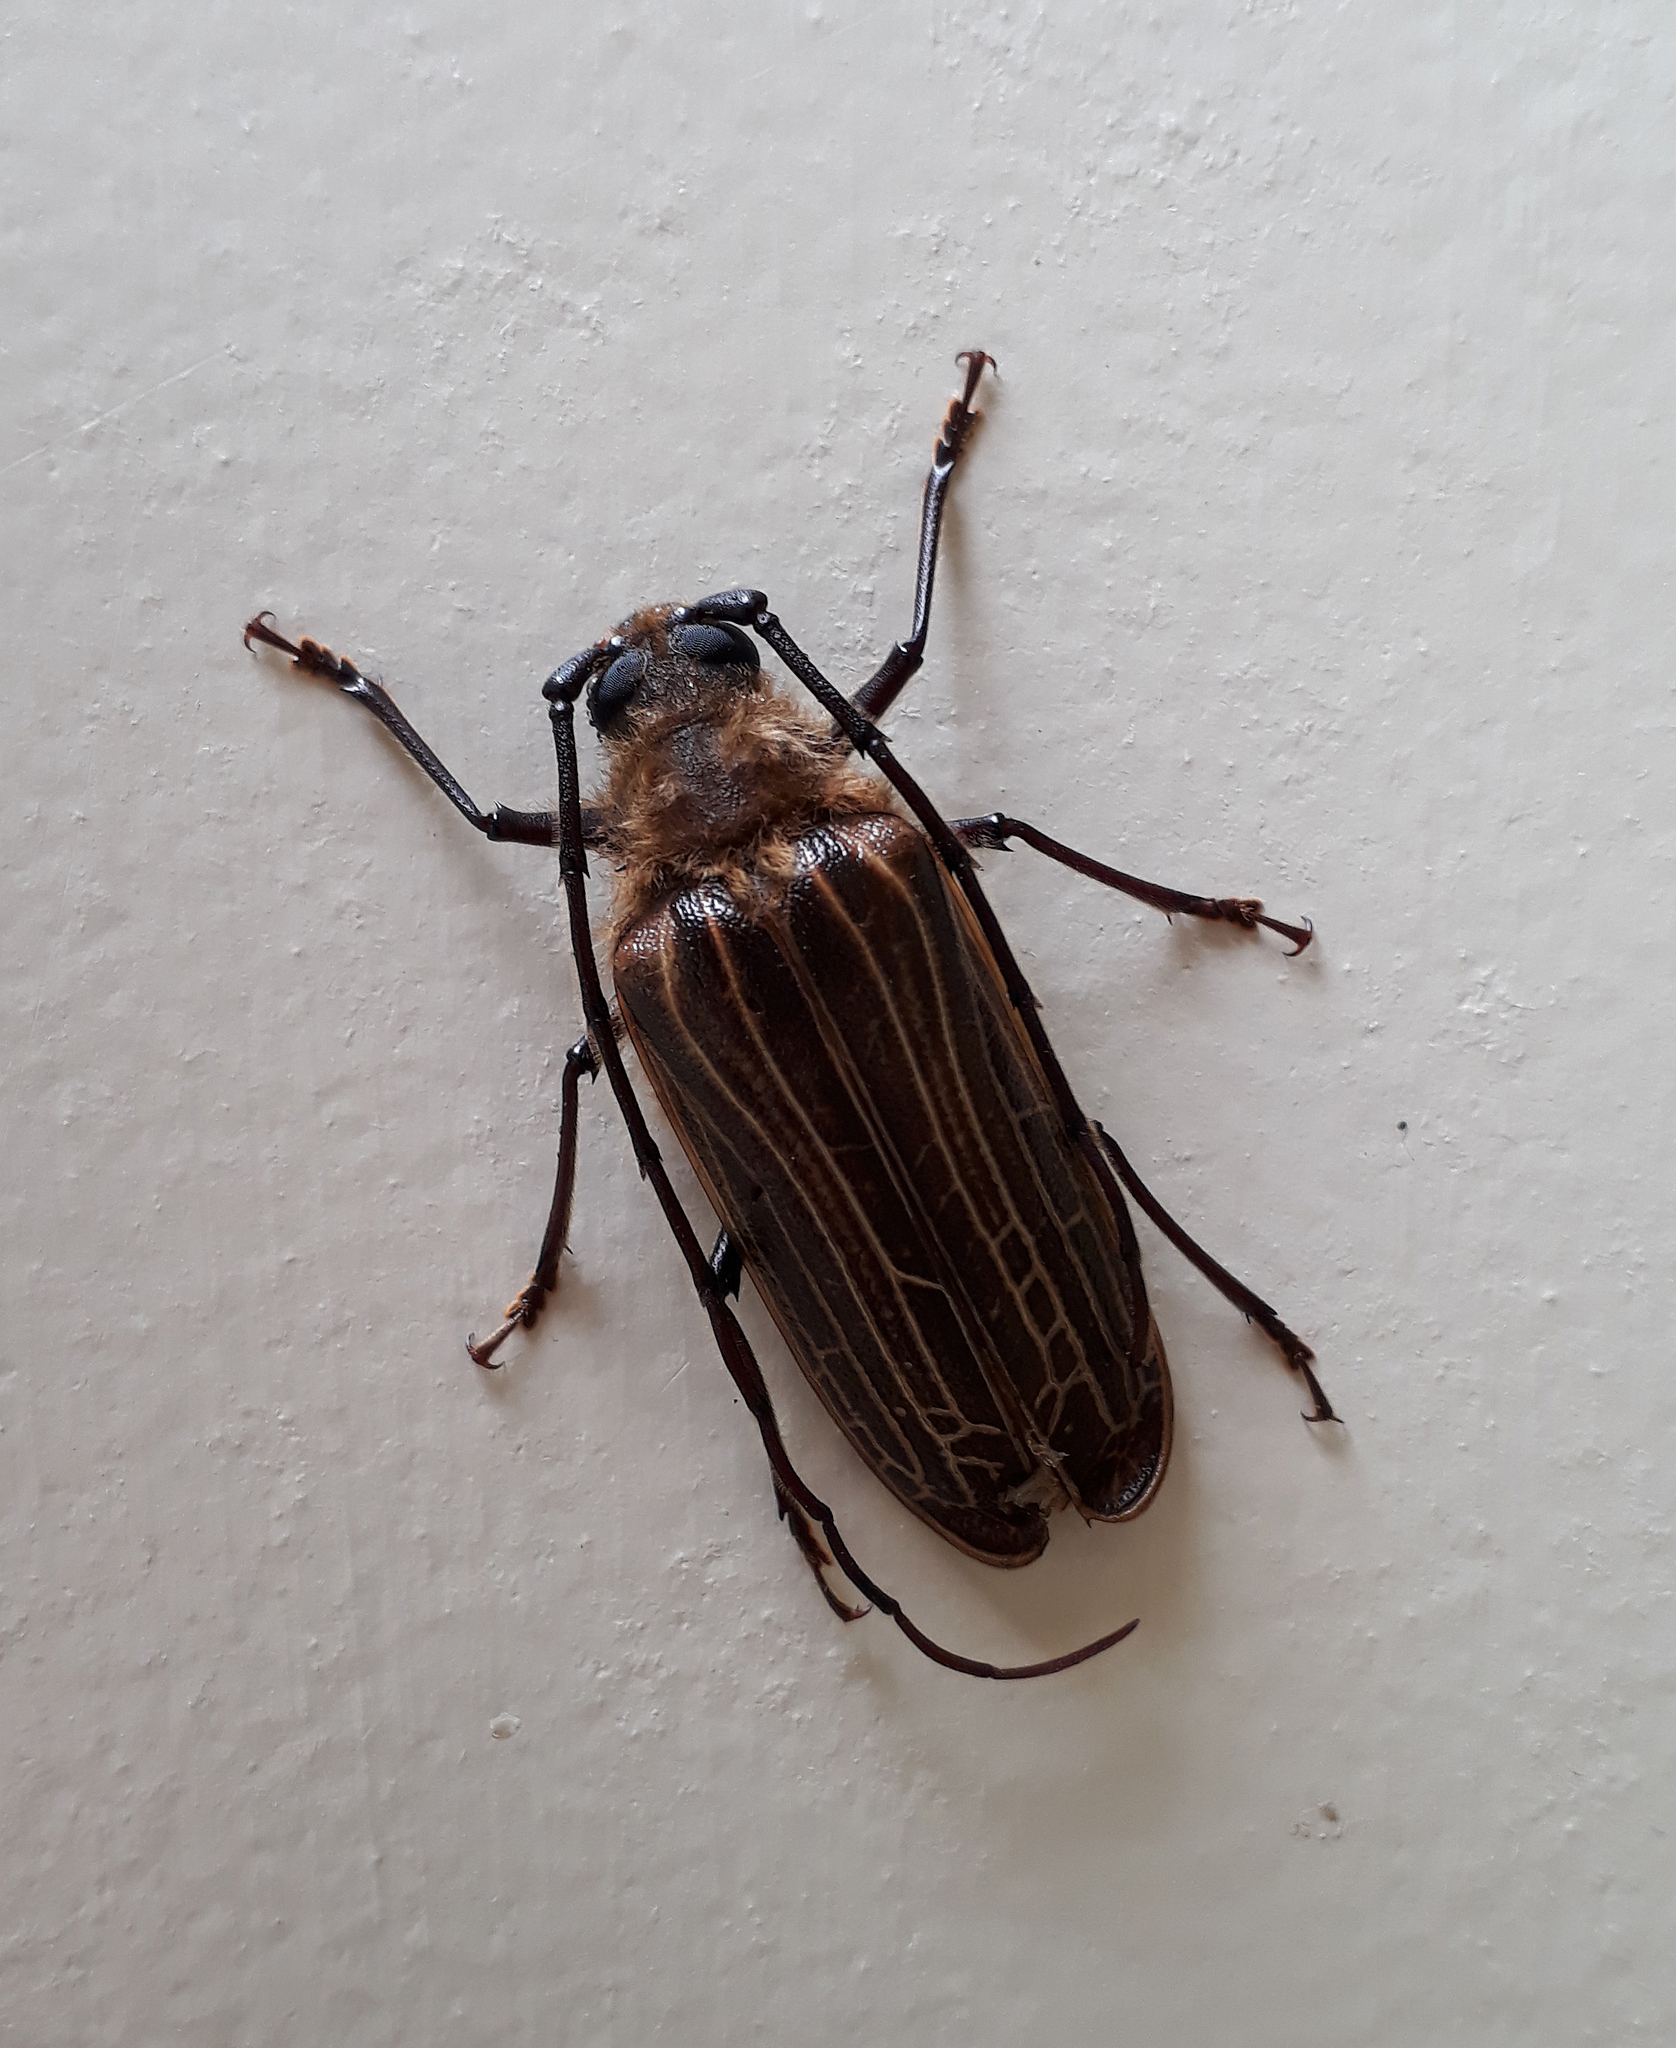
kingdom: Animalia
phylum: Arthropoda
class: Insecta
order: Coleoptera
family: Cerambycidae
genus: Prionoplus
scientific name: Prionoplus reticularis
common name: Huhu beetle
